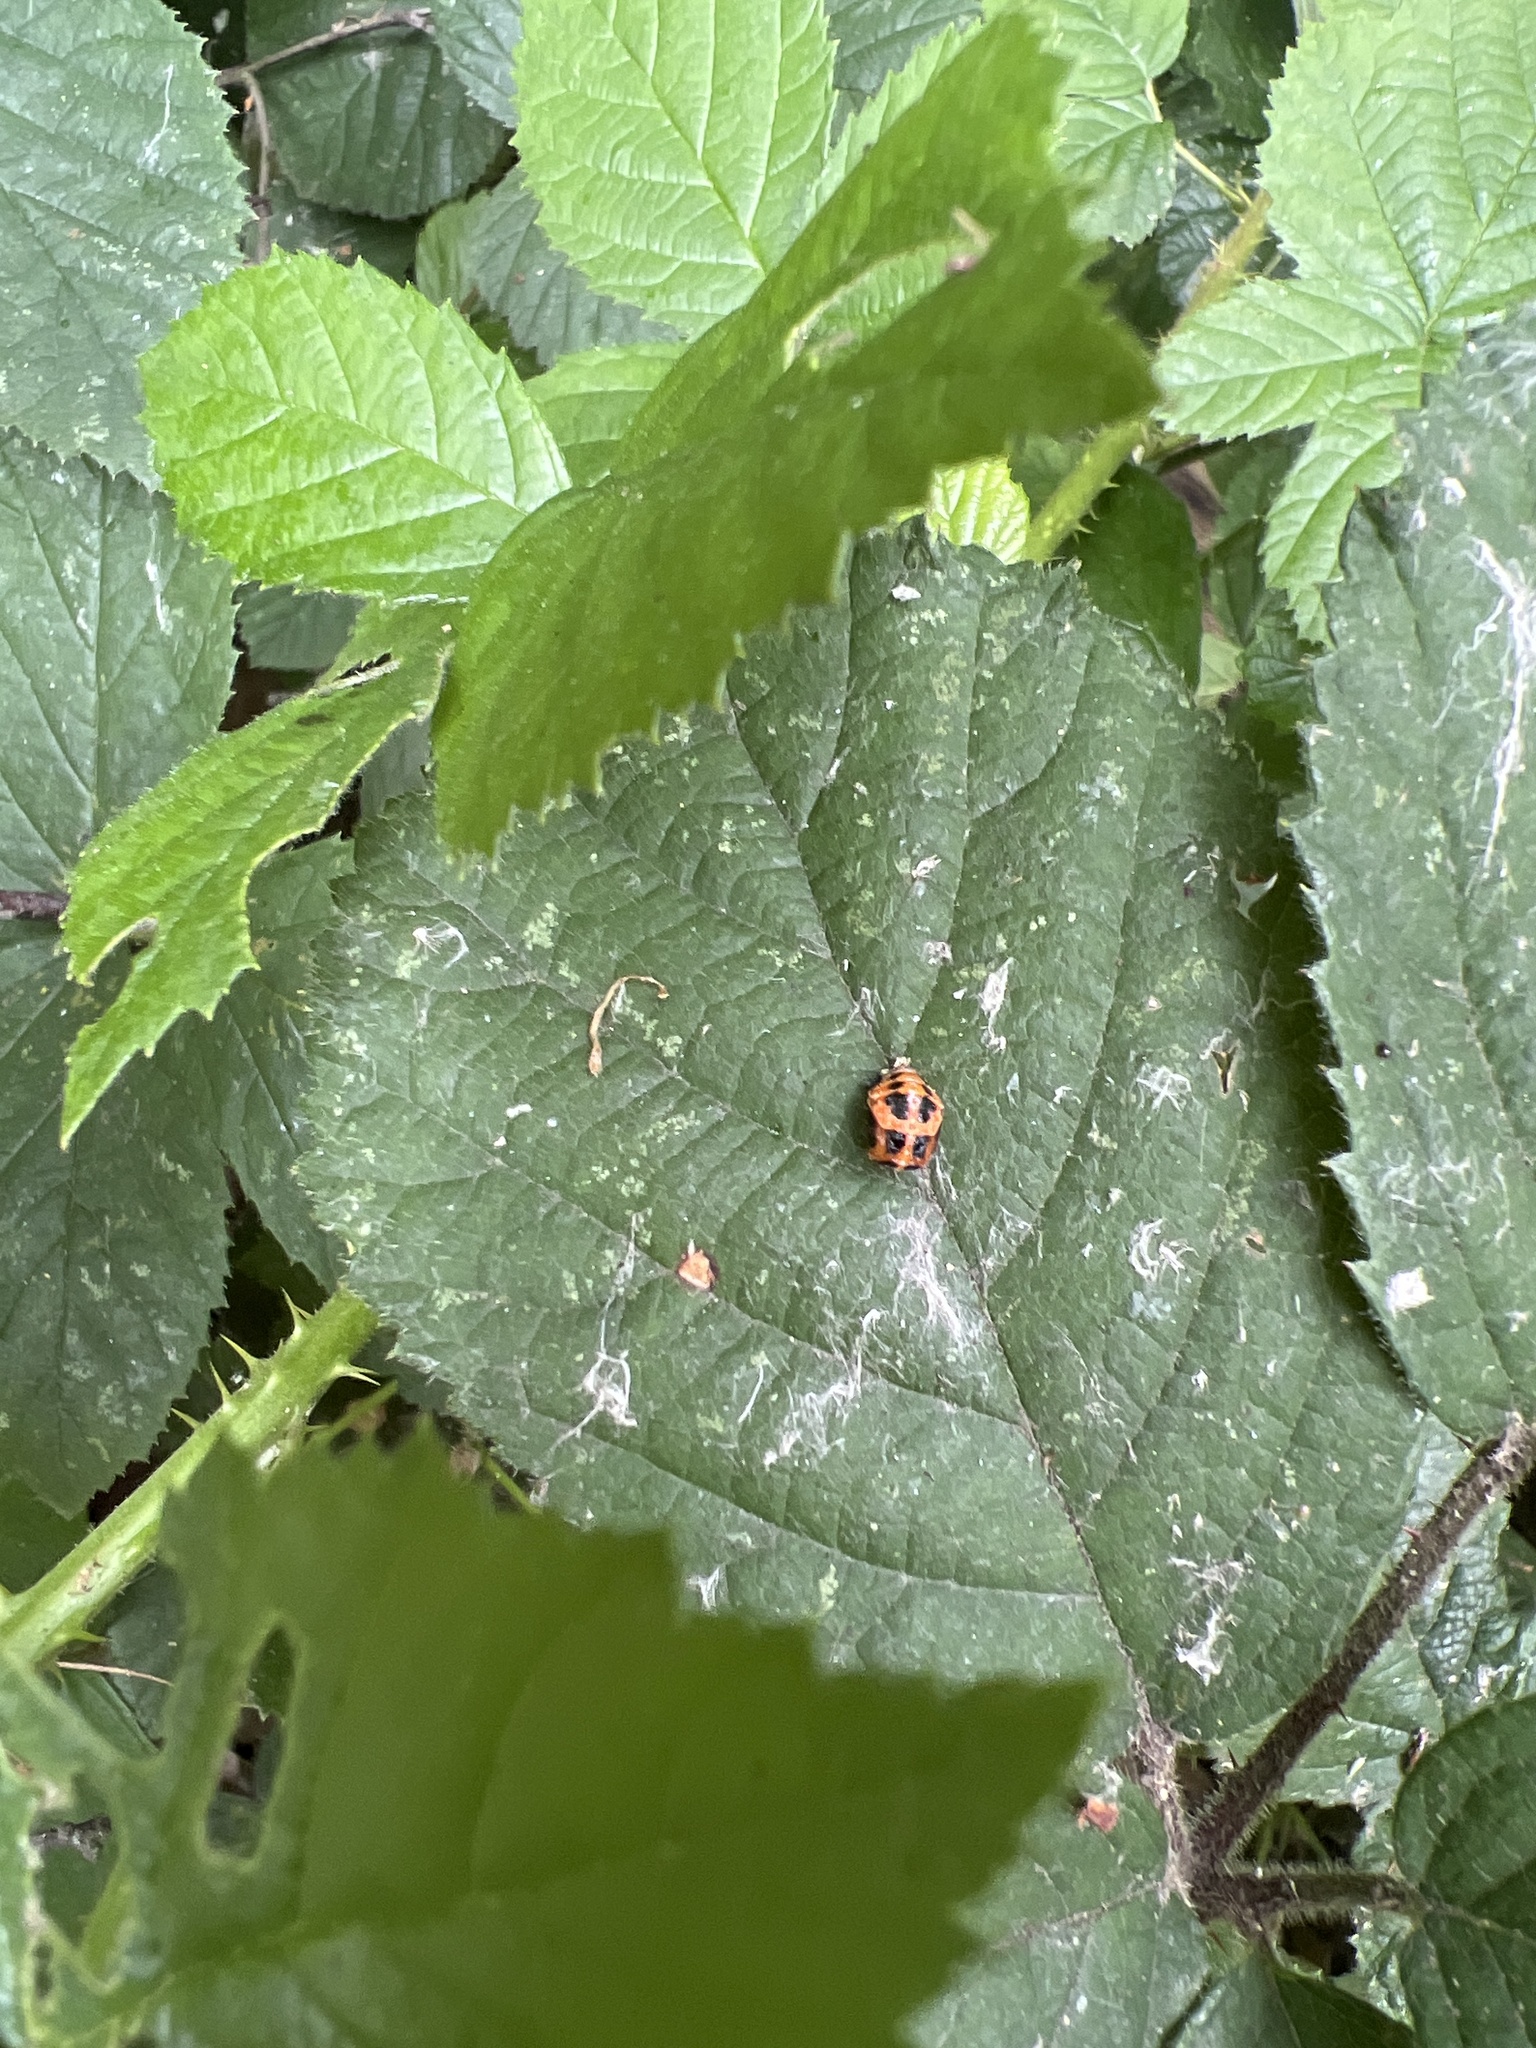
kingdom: Animalia
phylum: Arthropoda
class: Insecta
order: Coleoptera
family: Coccinellidae
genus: Harmonia
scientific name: Harmonia axyridis
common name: Harlequin ladybird
